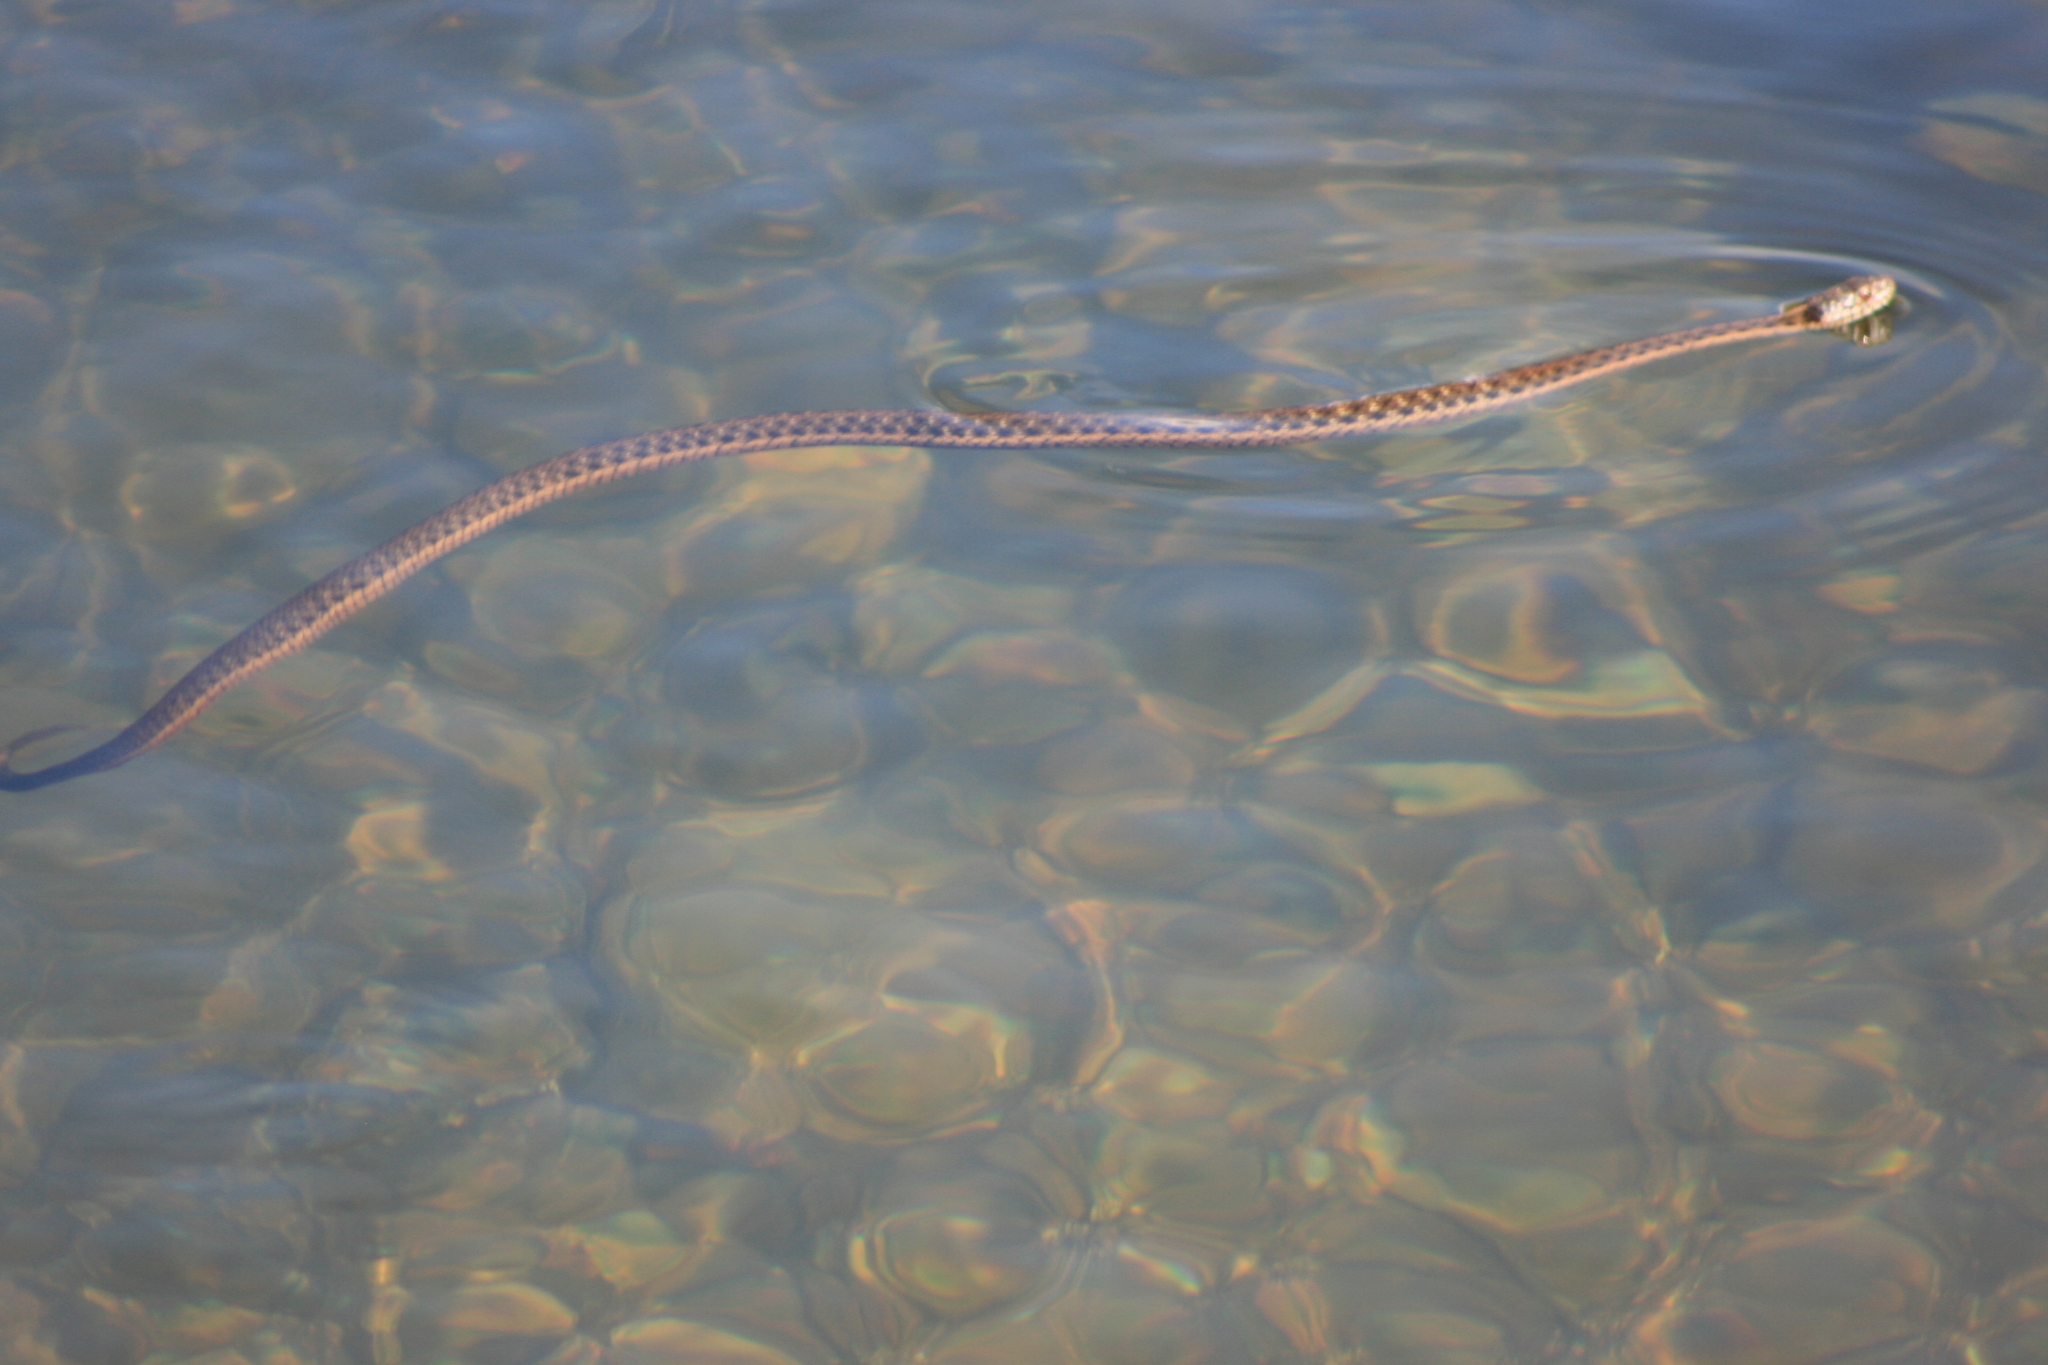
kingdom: Animalia
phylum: Chordata
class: Squamata
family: Colubridae
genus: Thamnophis
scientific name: Thamnophis couchii
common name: Western aquatic garter snake
